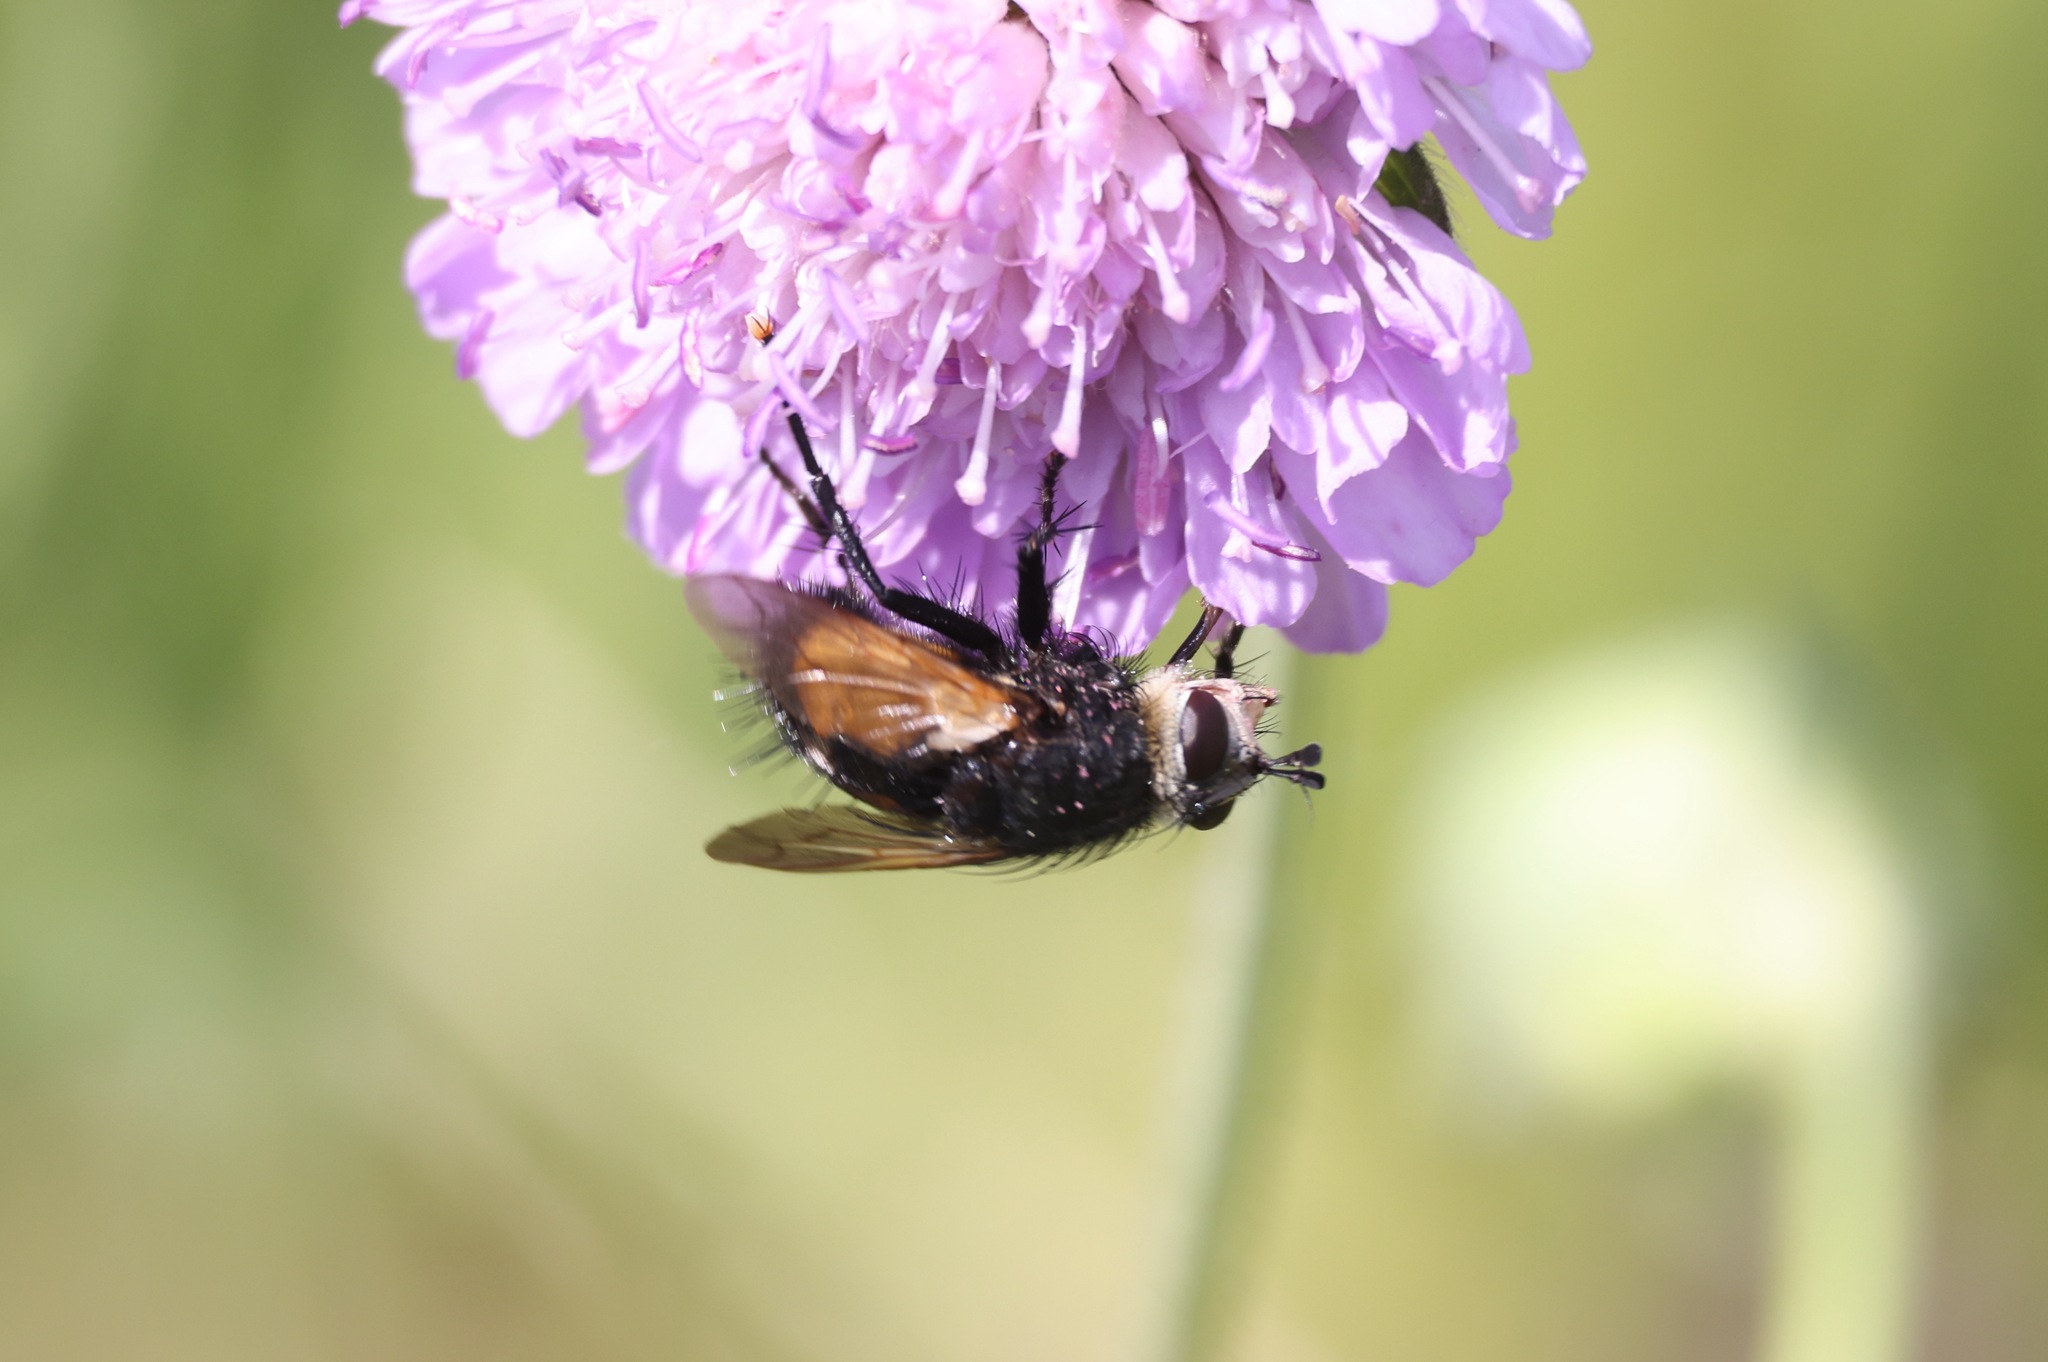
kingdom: Animalia
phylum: Arthropoda
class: Insecta
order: Diptera
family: Tachinidae
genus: Nowickia
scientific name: Nowickia ferox
